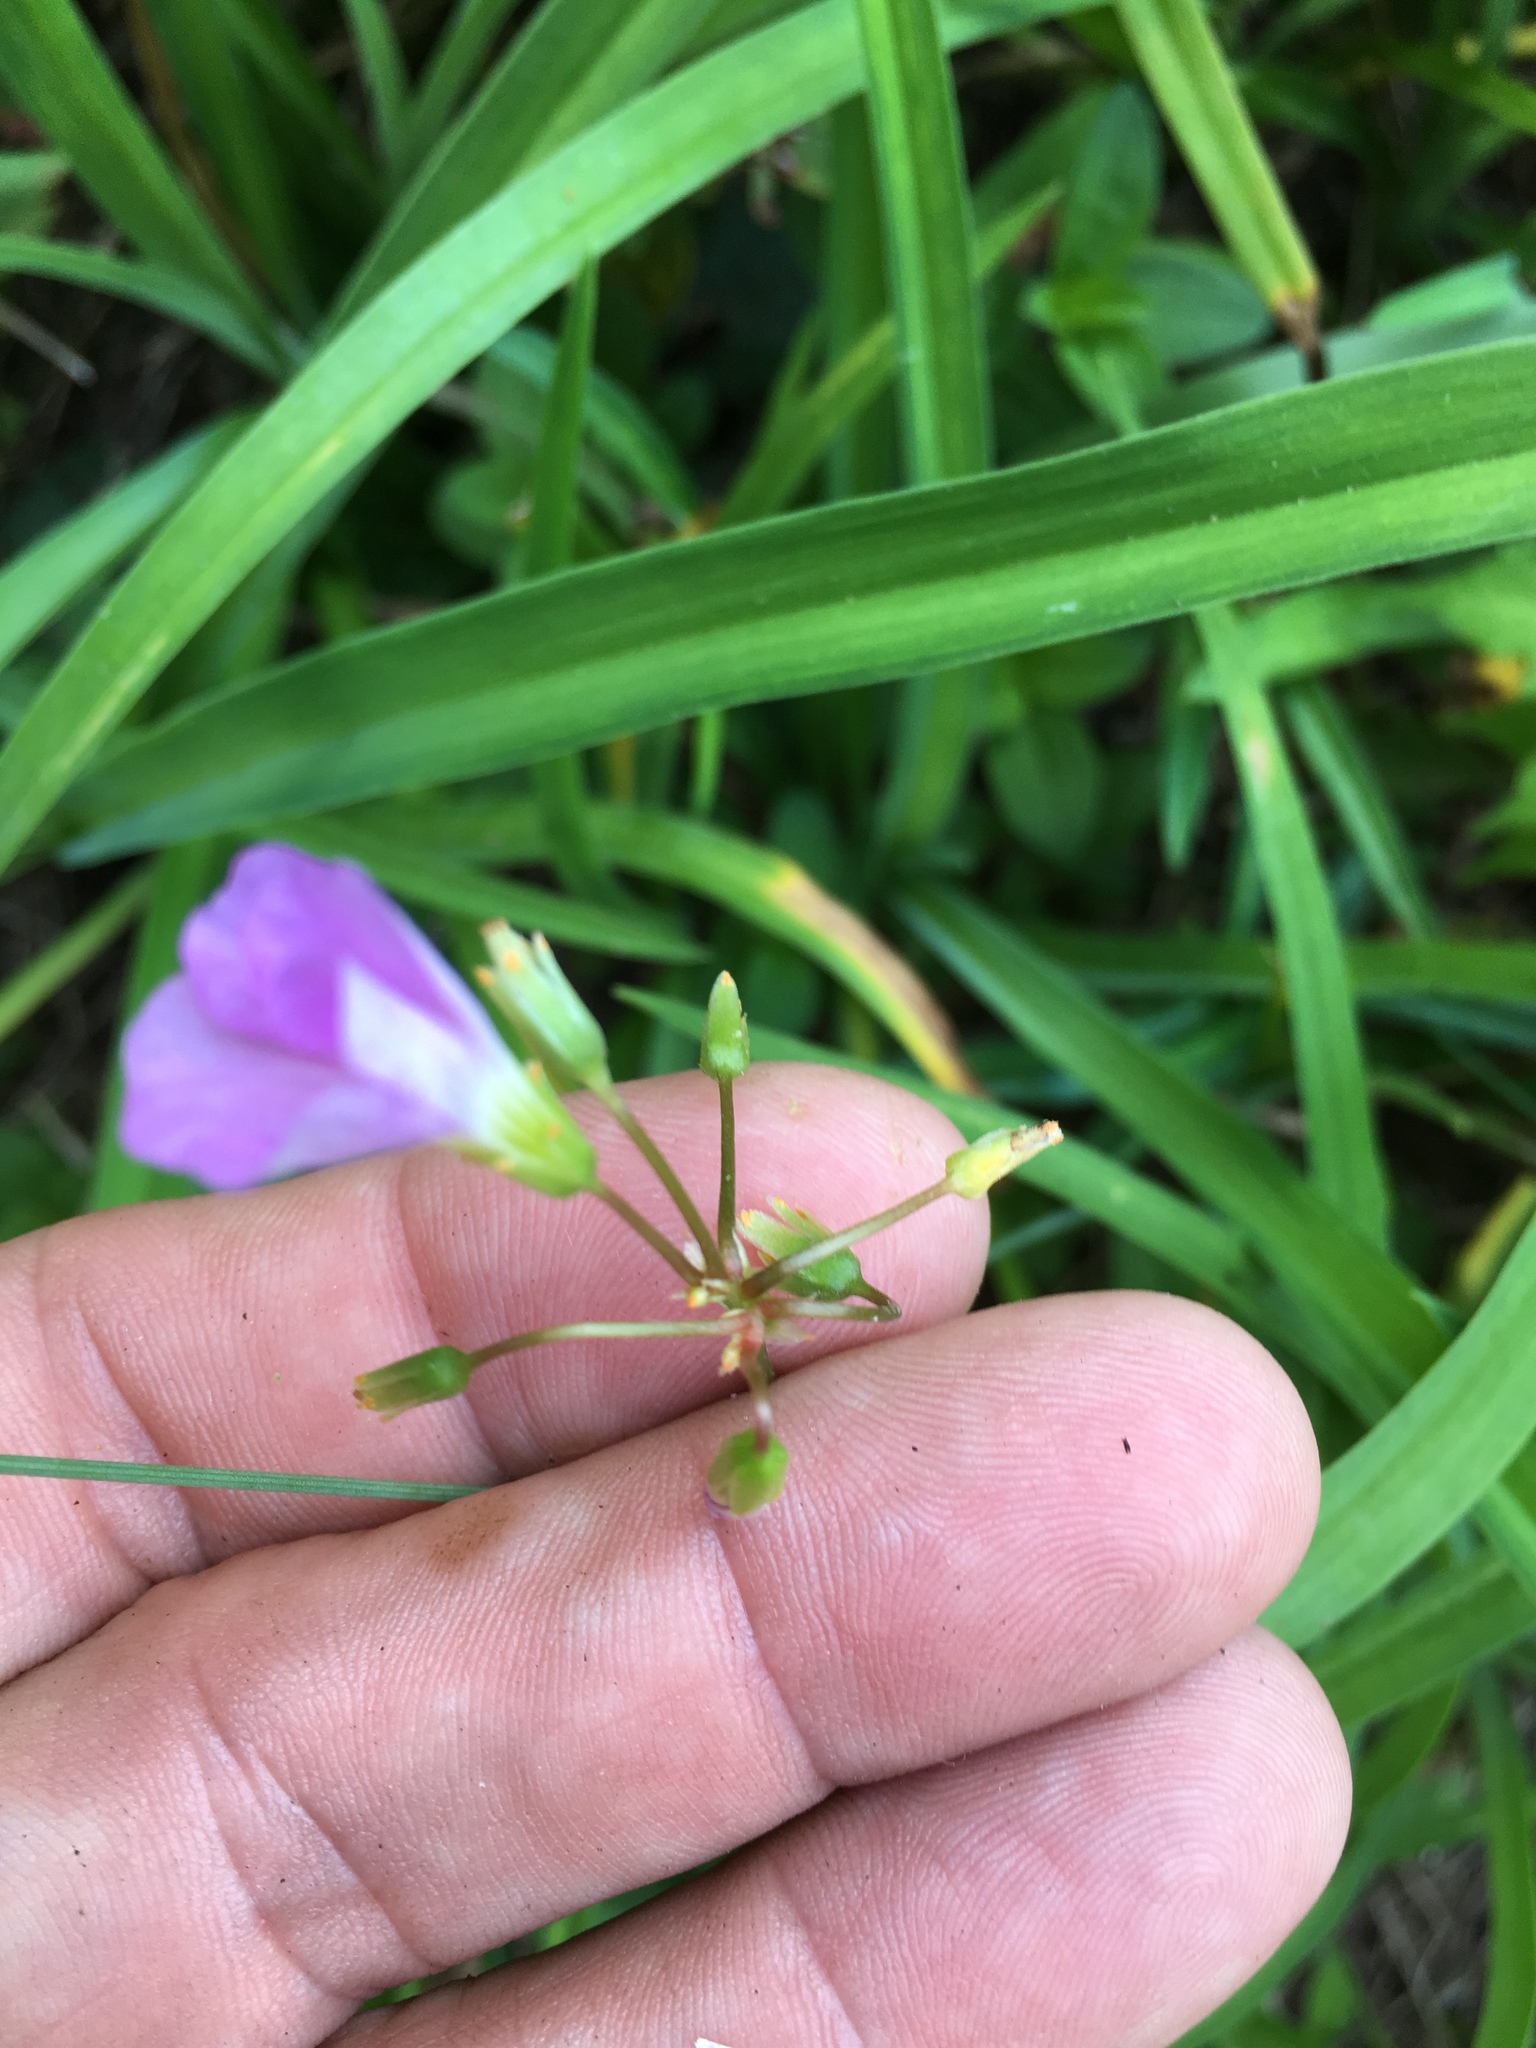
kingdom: Plantae
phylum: Tracheophyta
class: Magnoliopsida
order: Oxalidales
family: Oxalidaceae
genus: Oxalis
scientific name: Oxalis violacea
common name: Violet wood-sorrel
